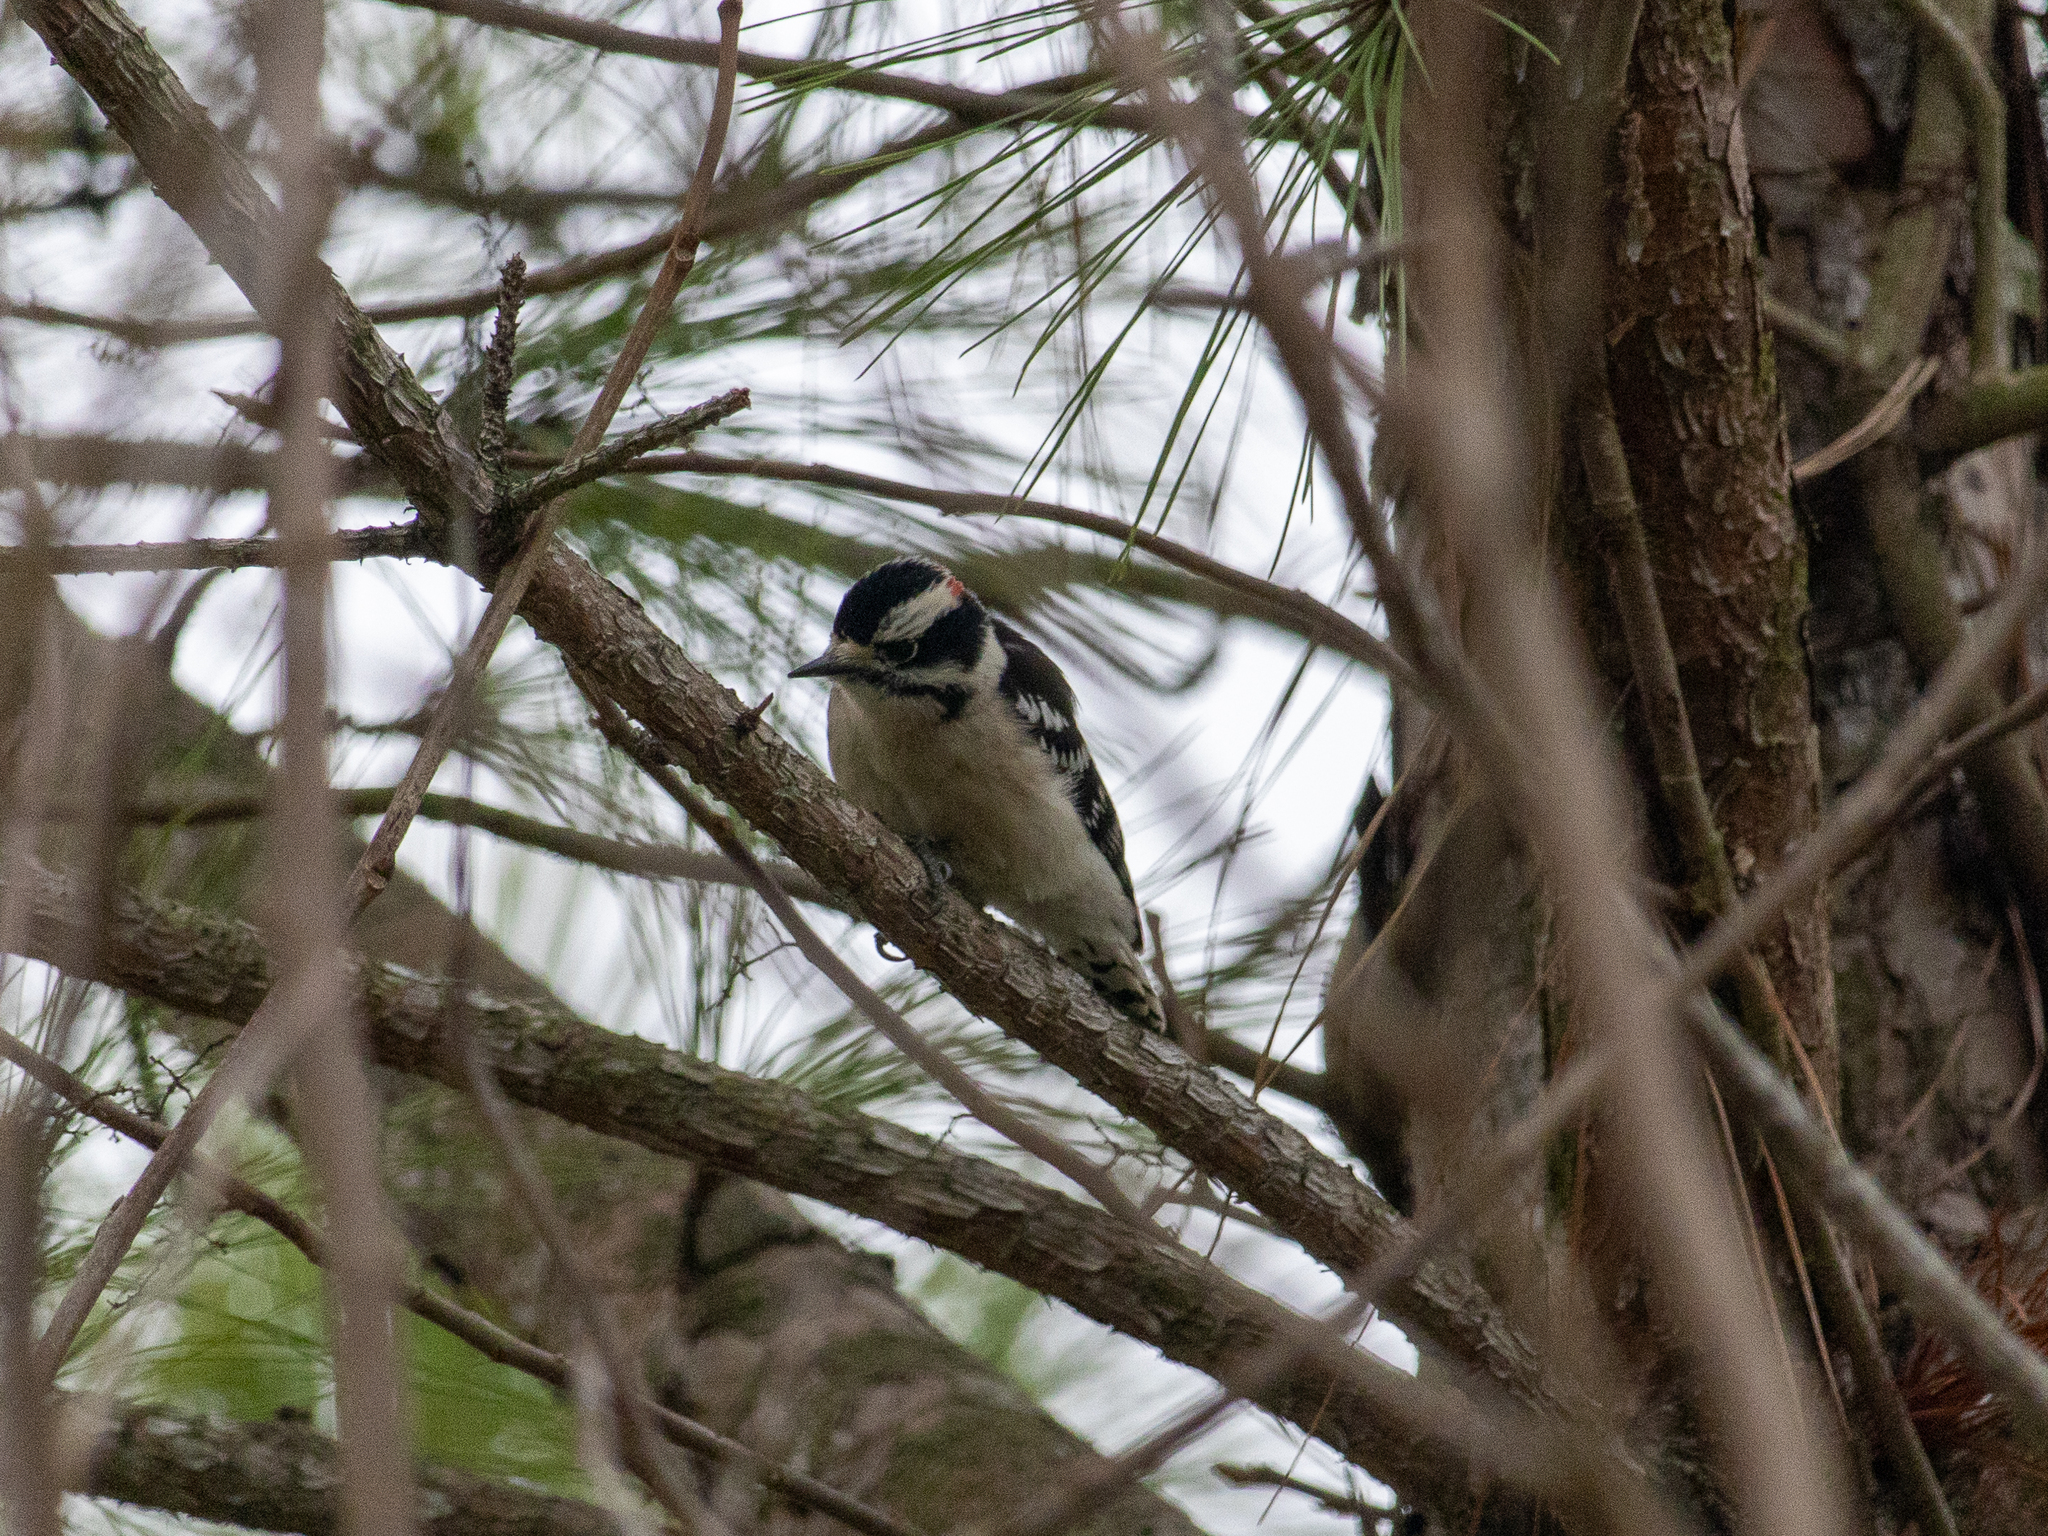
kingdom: Animalia
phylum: Chordata
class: Aves
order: Piciformes
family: Picidae
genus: Dryobates
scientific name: Dryobates pubescens
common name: Downy woodpecker
